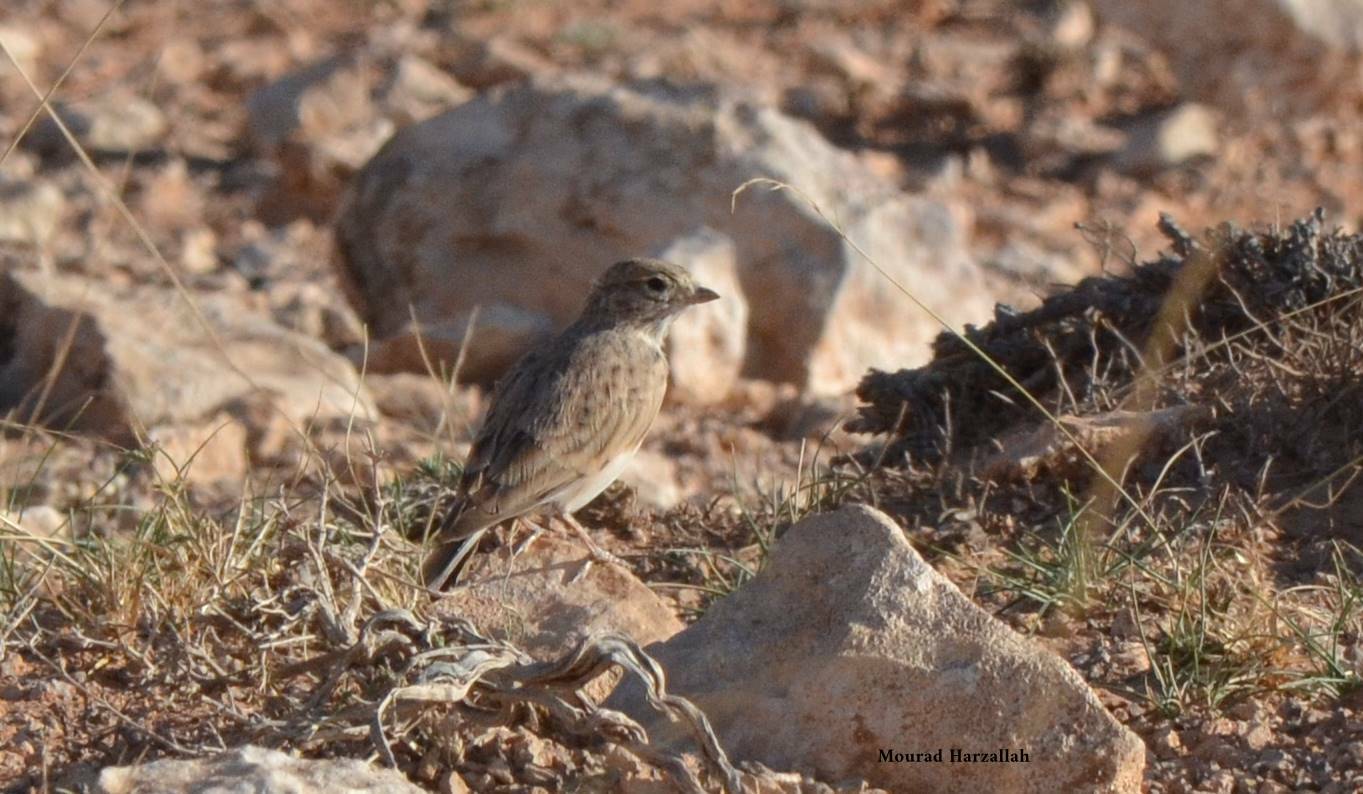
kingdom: Animalia
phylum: Chordata
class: Aves
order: Passeriformes
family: Alaudidae
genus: Calandrella
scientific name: Calandrella rufescens
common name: Lesser short-toed lark
